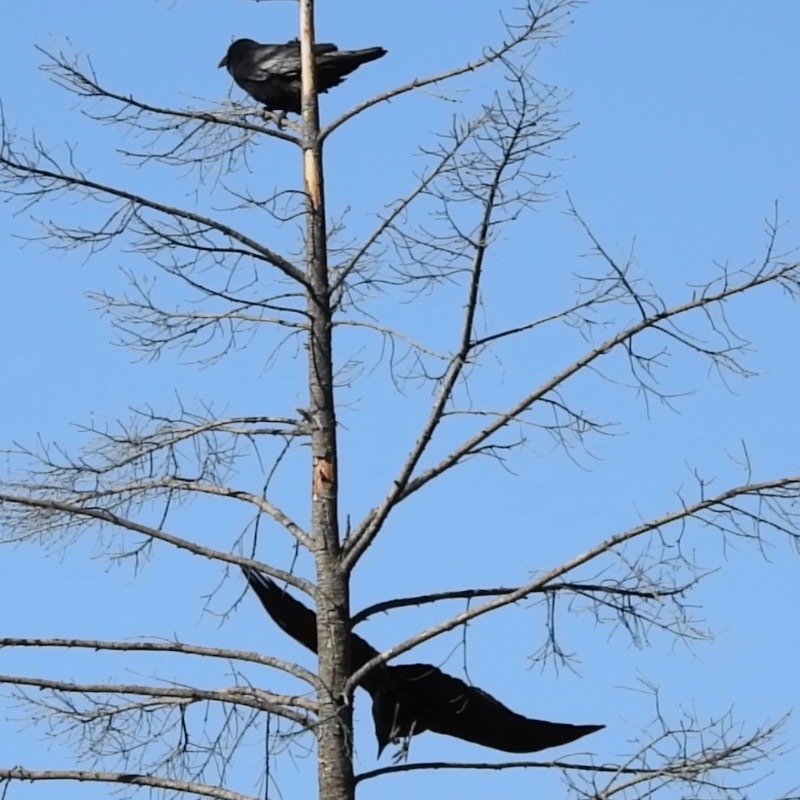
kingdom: Animalia
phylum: Chordata
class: Aves
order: Passeriformes
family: Corvidae
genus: Corvus
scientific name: Corvus corax
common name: Common raven
